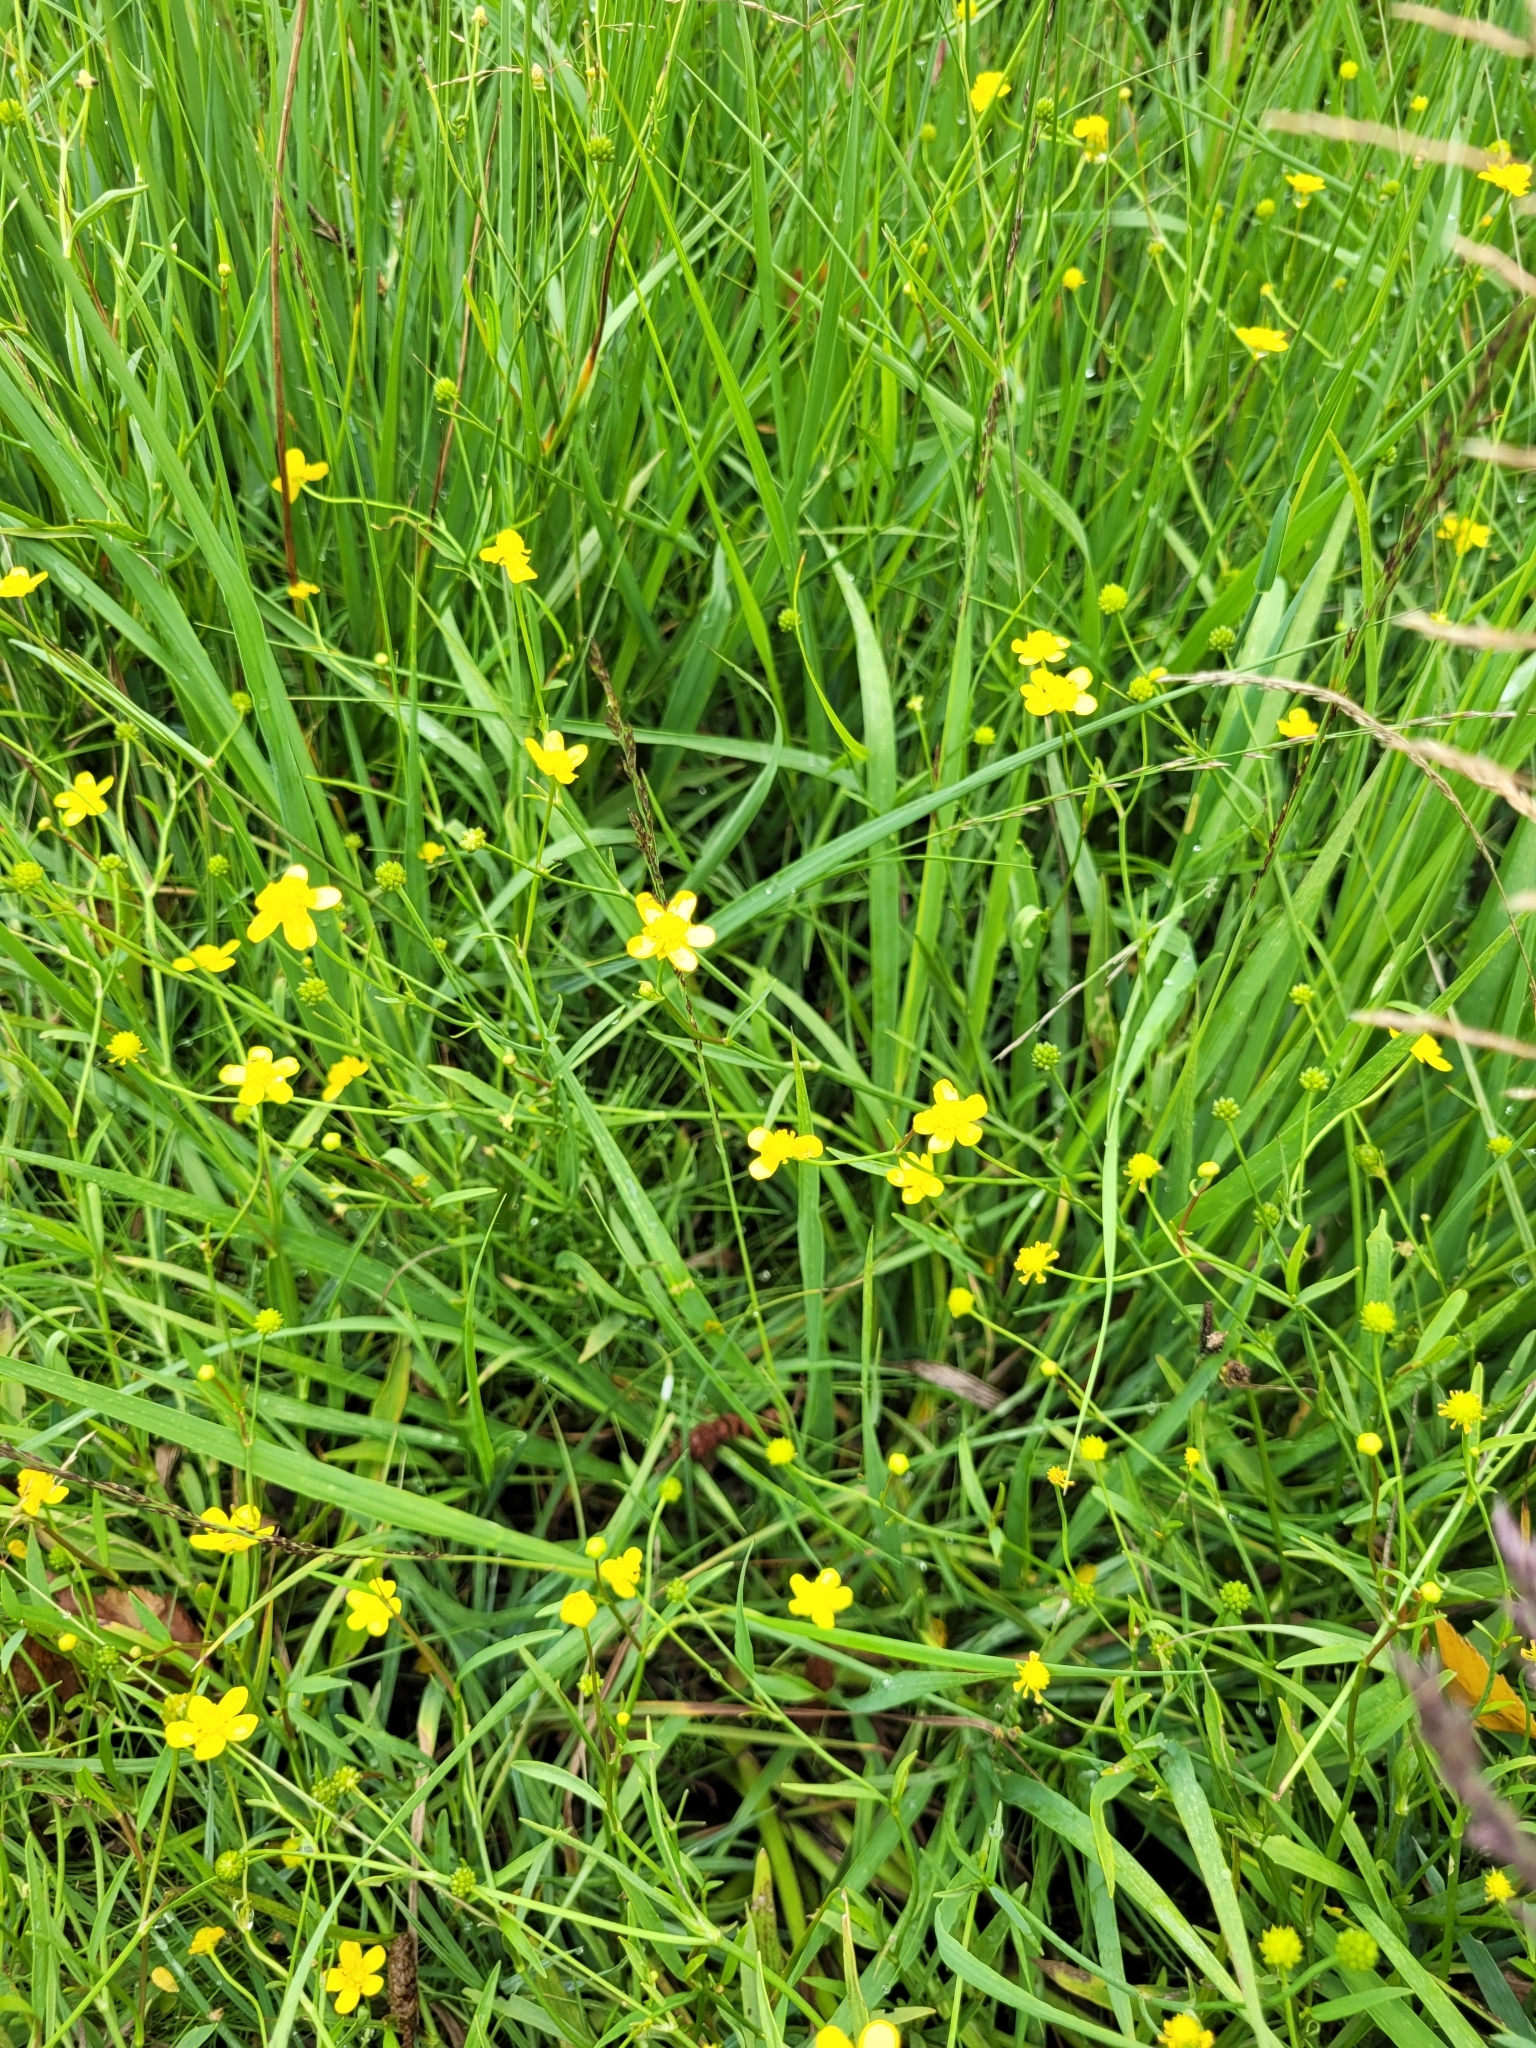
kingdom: Plantae
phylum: Tracheophyta
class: Magnoliopsida
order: Ranunculales
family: Ranunculaceae
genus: Ranunculus
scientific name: Ranunculus flammula
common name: Lesser spearwort
